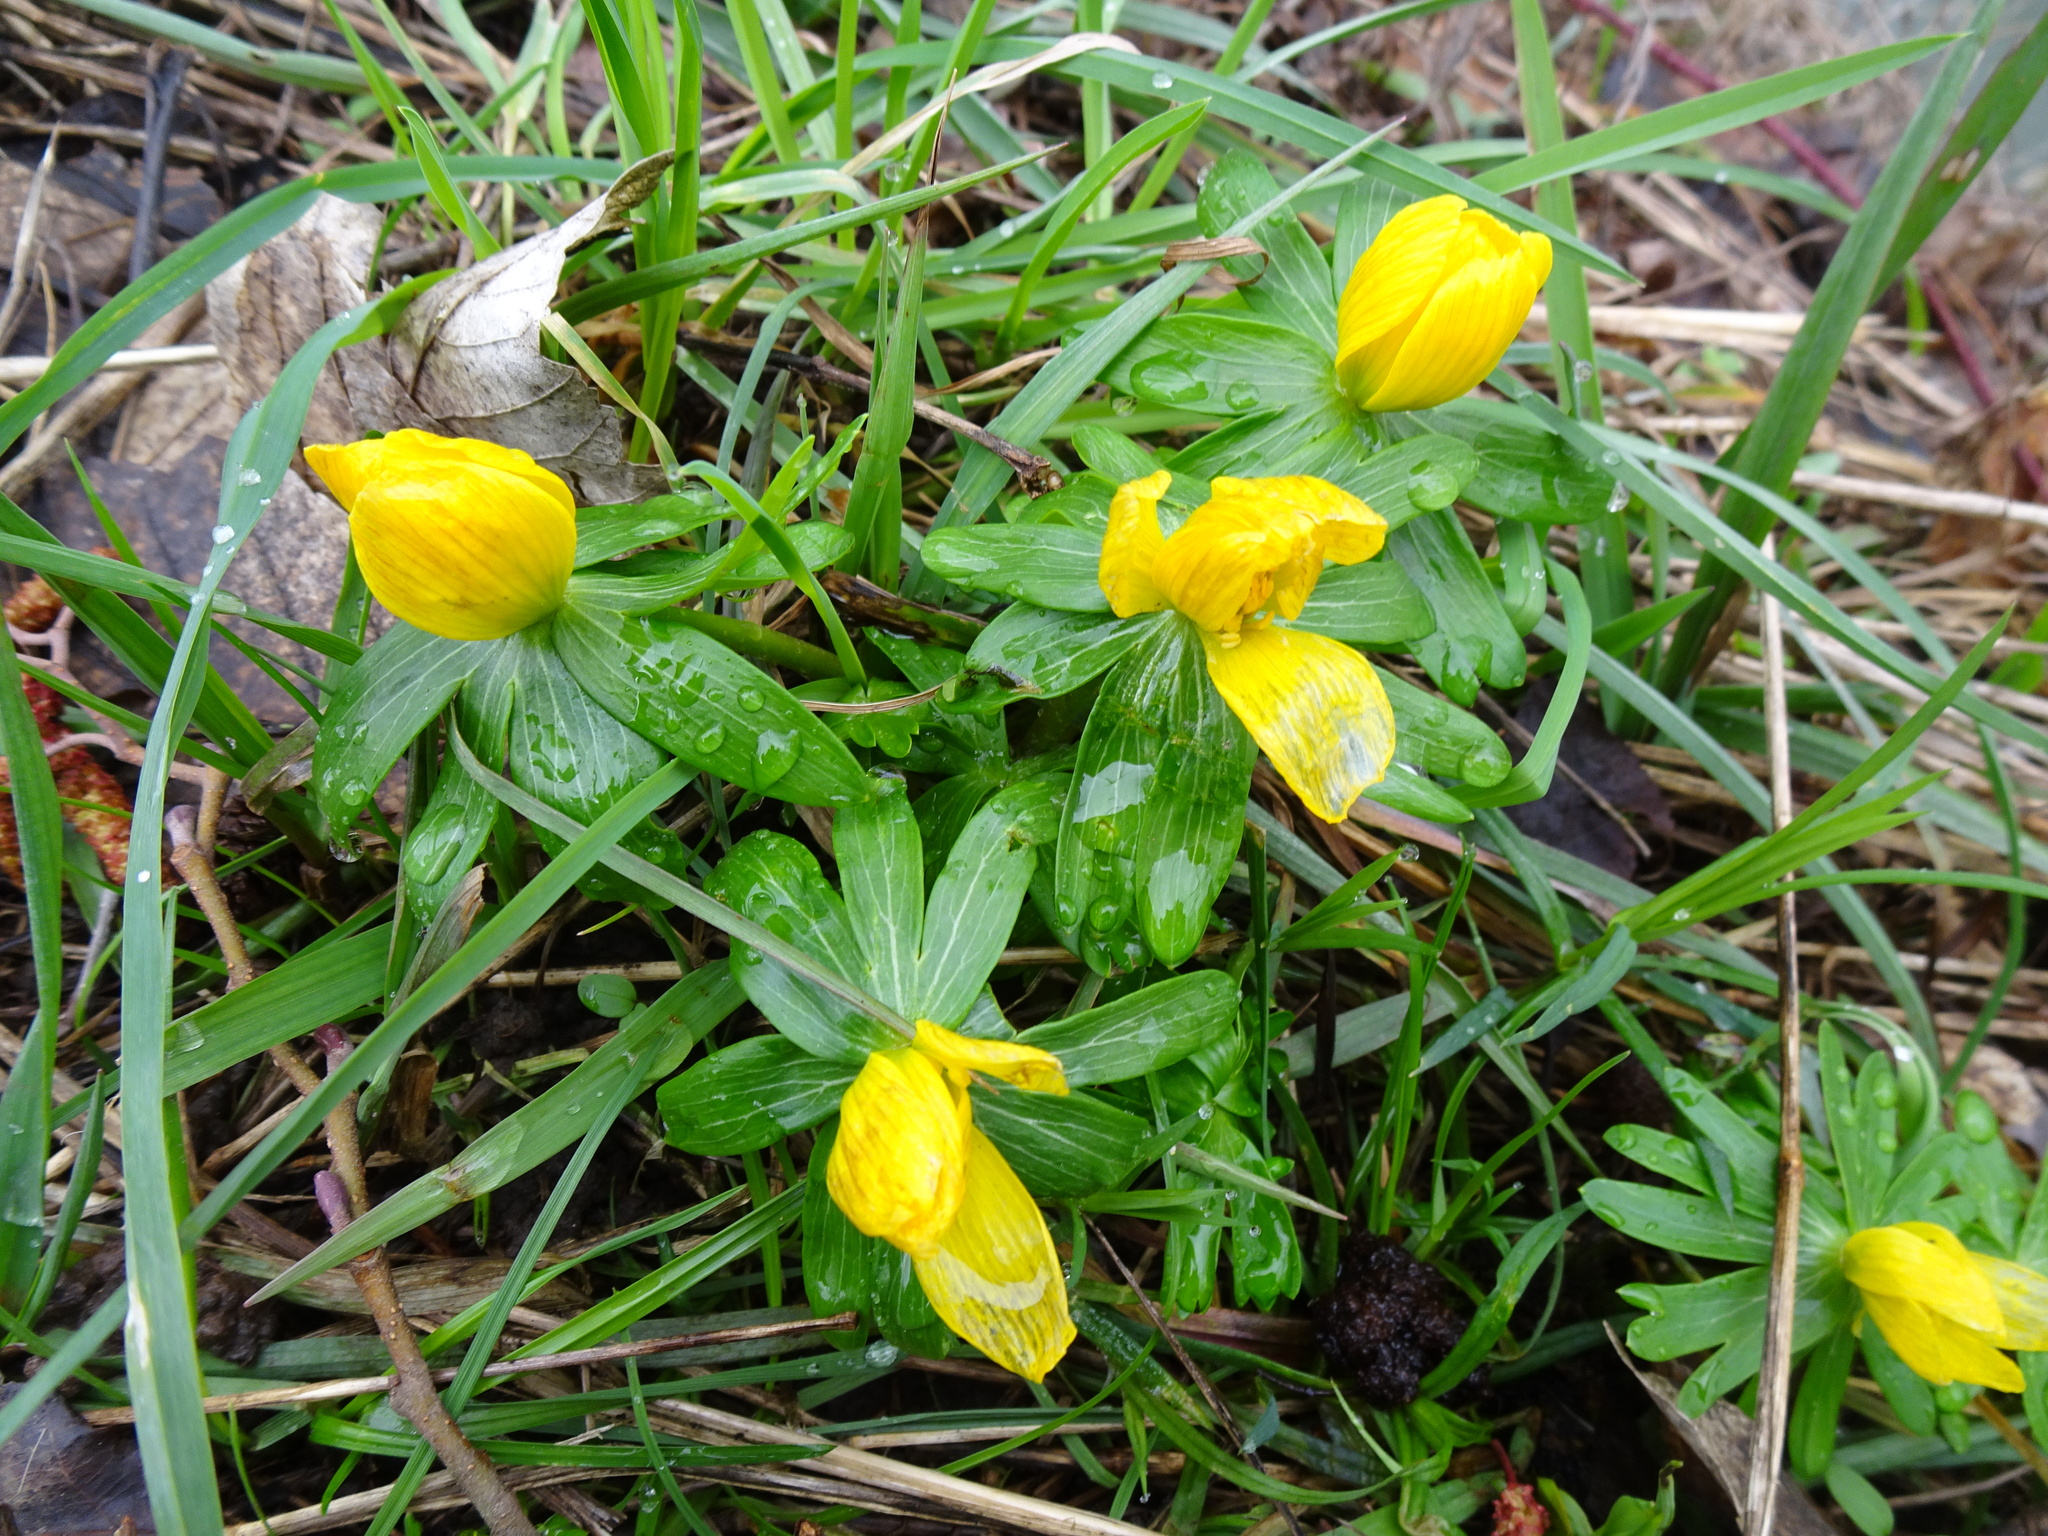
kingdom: Plantae
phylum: Tracheophyta
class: Magnoliopsida
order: Ranunculales
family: Ranunculaceae
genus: Eranthis
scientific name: Eranthis hyemalis
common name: Winter aconite
